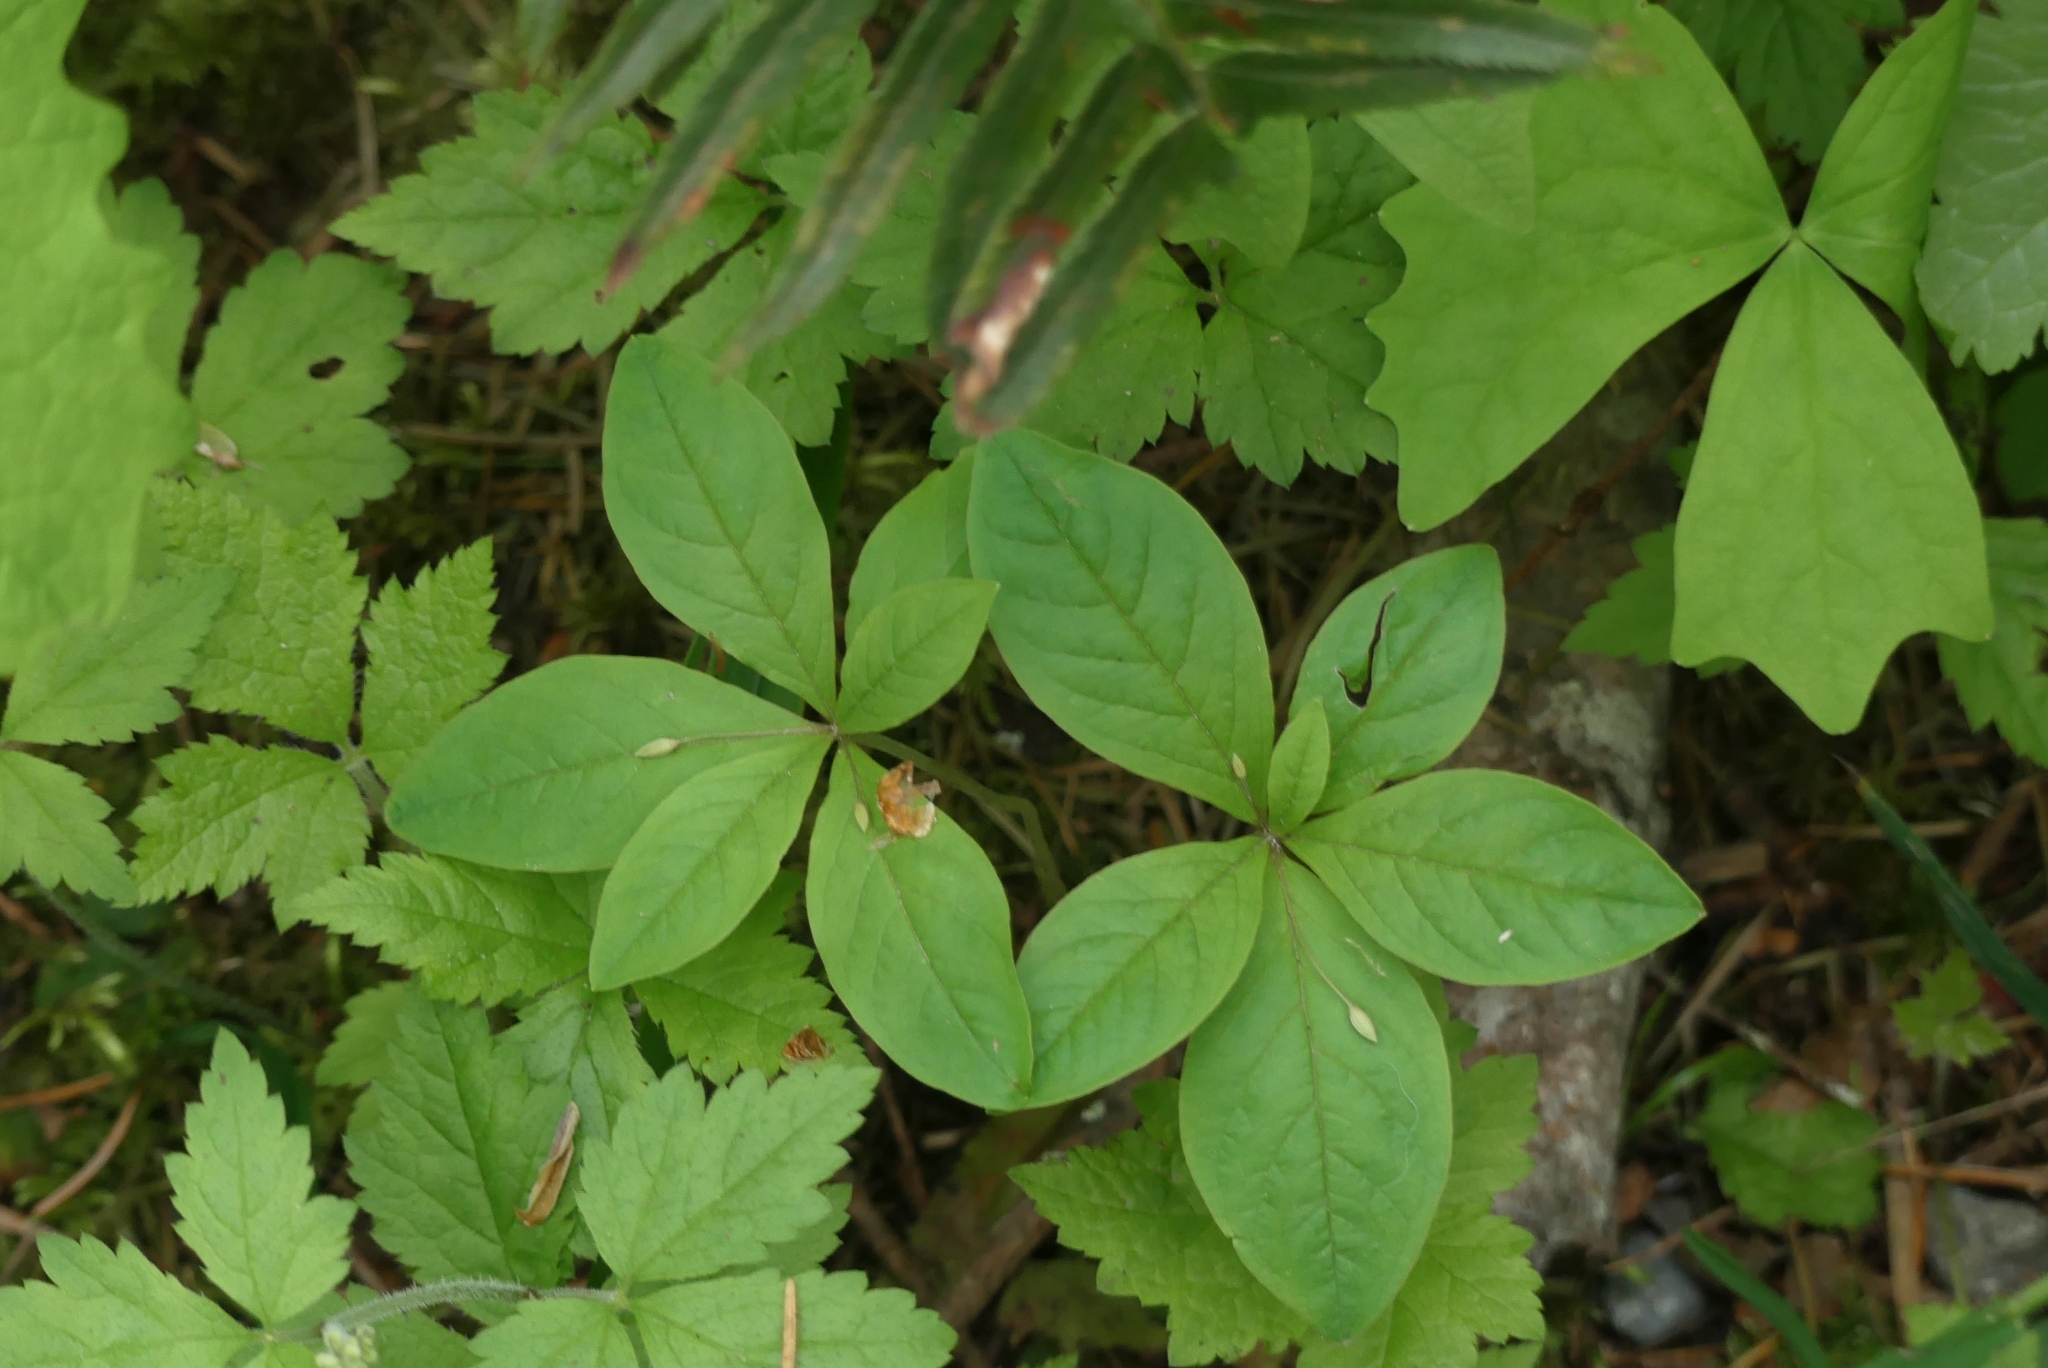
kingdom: Plantae
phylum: Tracheophyta
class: Magnoliopsida
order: Ericales
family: Primulaceae
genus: Lysimachia
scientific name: Lysimachia latifolia
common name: Pacific starflower
